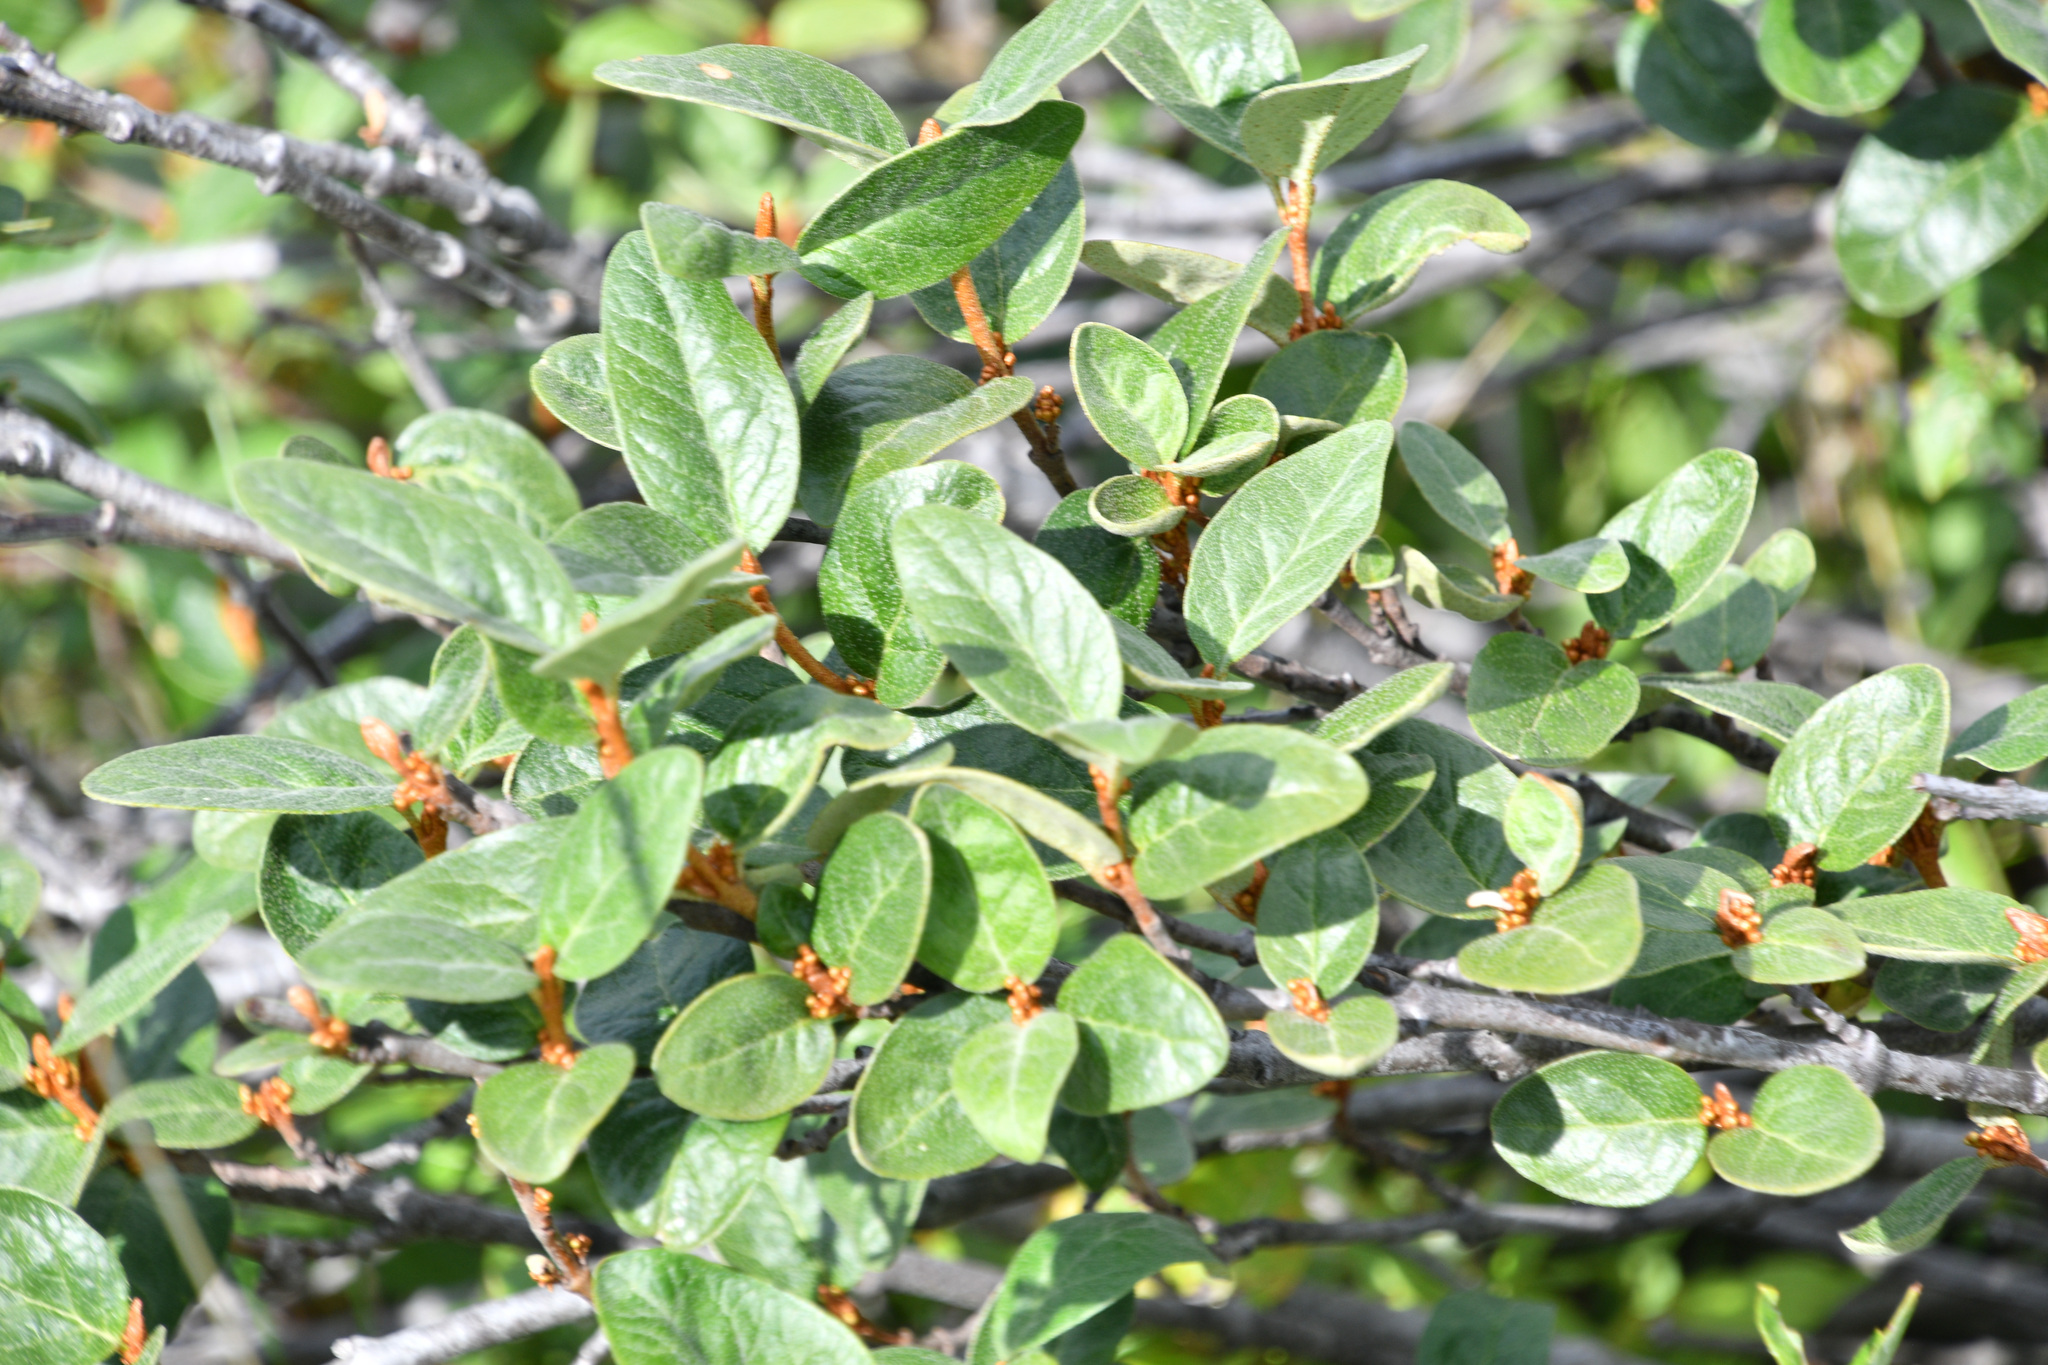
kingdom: Plantae
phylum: Tracheophyta
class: Magnoliopsida
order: Rosales
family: Elaeagnaceae
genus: Shepherdia
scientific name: Shepherdia canadensis
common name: Soapberry
